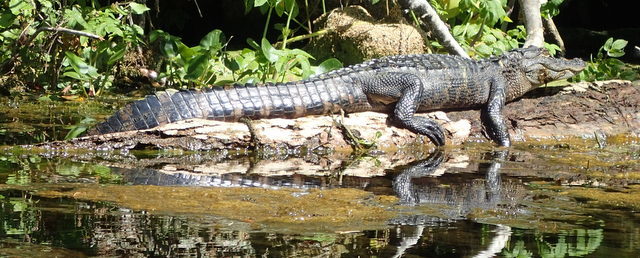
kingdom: Animalia
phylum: Chordata
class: Crocodylia
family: Alligatoridae
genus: Alligator
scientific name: Alligator mississippiensis
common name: American alligator
